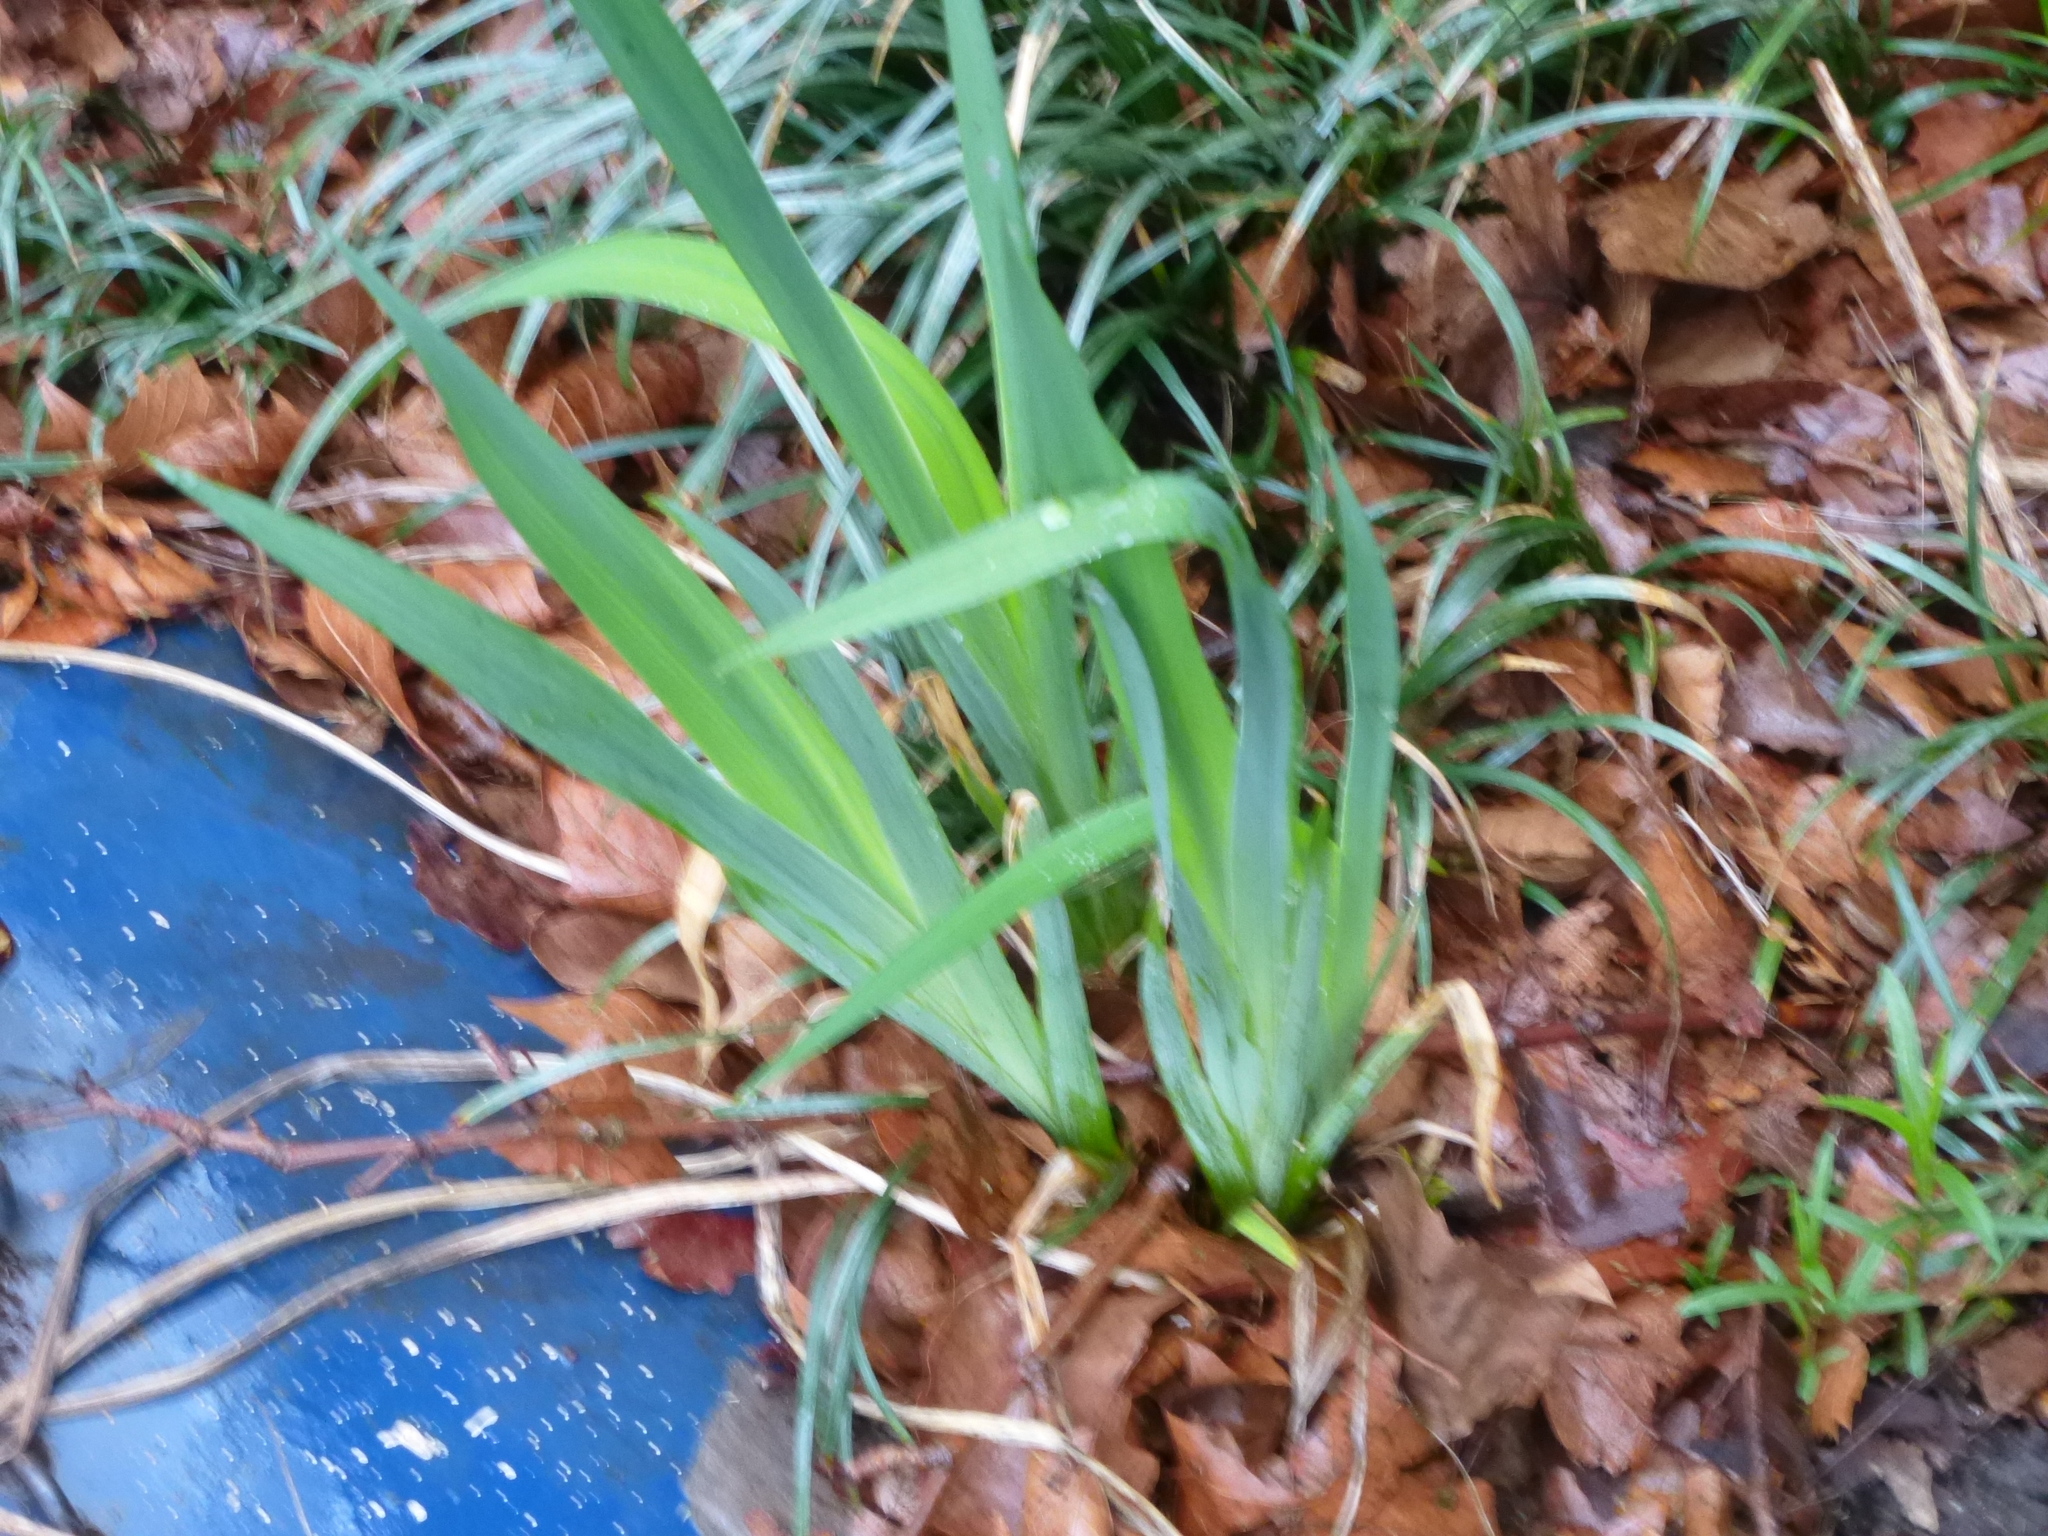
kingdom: Plantae
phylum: Tracheophyta
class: Liliopsida
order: Asparagales
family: Iridaceae
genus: Iris
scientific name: Iris
